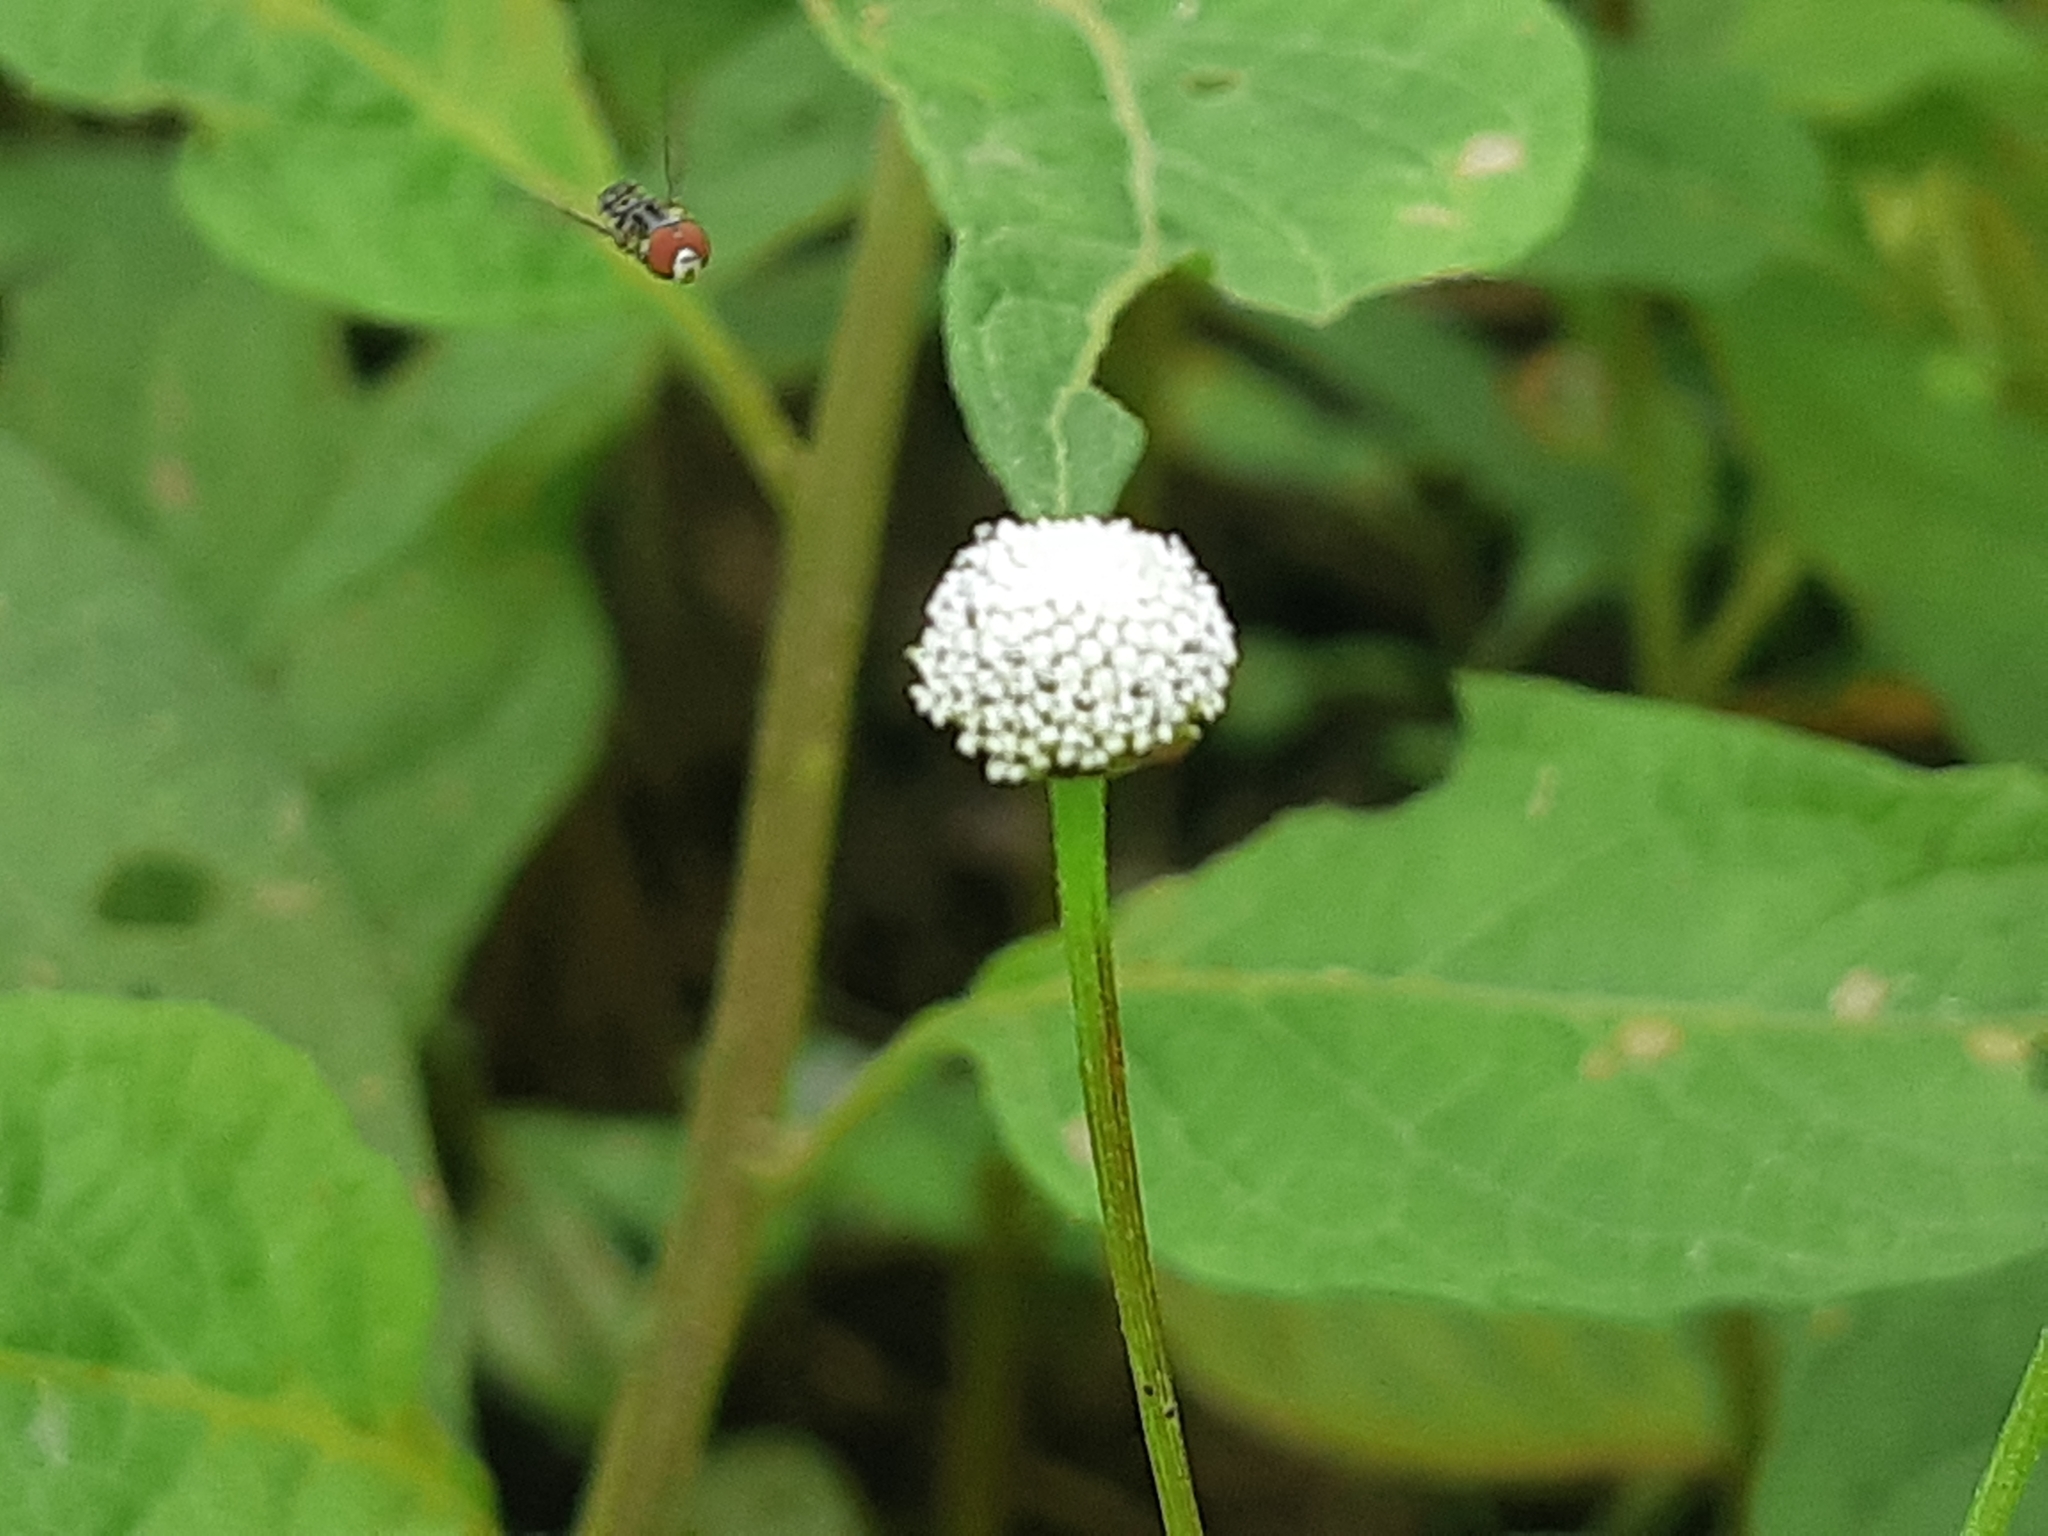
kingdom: Plantae
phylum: Tracheophyta
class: Magnoliopsida
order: Asterales
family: Asteraceae
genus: Acmella
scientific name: Acmella alba
